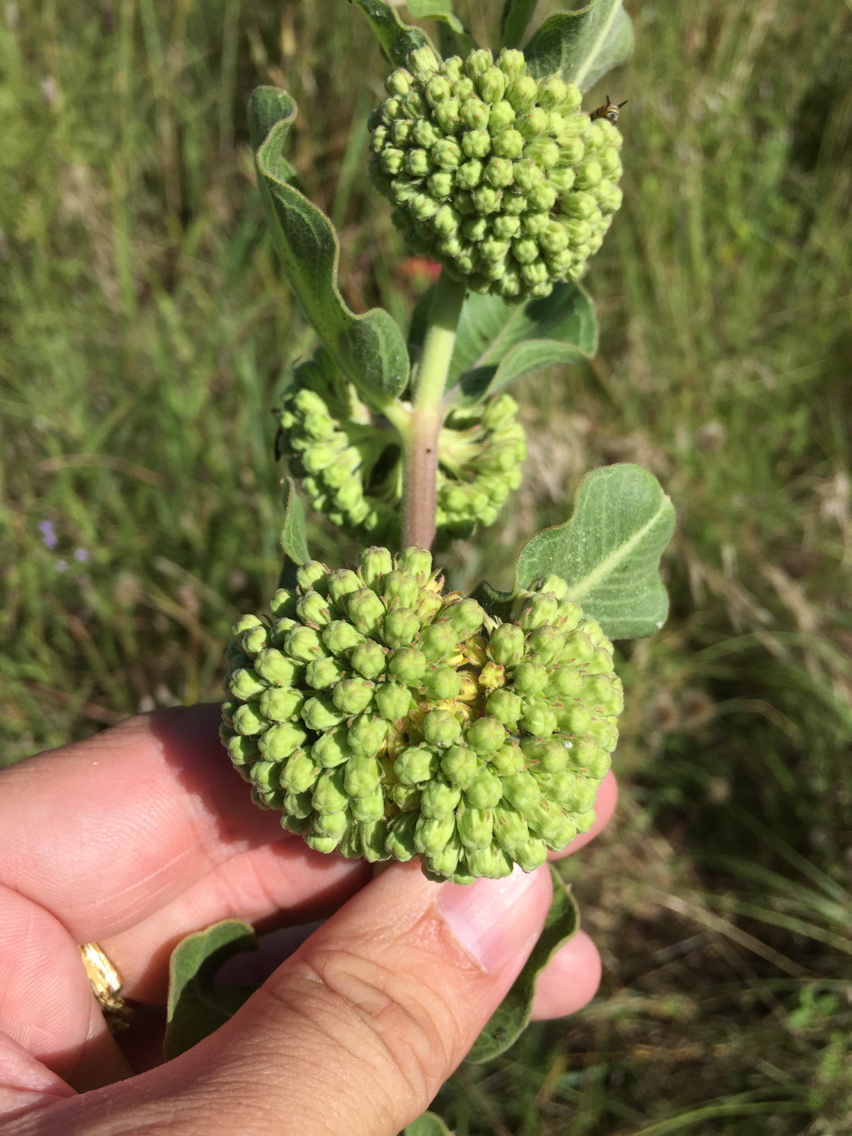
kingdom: Plantae
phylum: Tracheophyta
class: Magnoliopsida
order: Gentianales
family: Apocynaceae
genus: Asclepias
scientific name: Asclepias viridiflora
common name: Green comet milkweed
